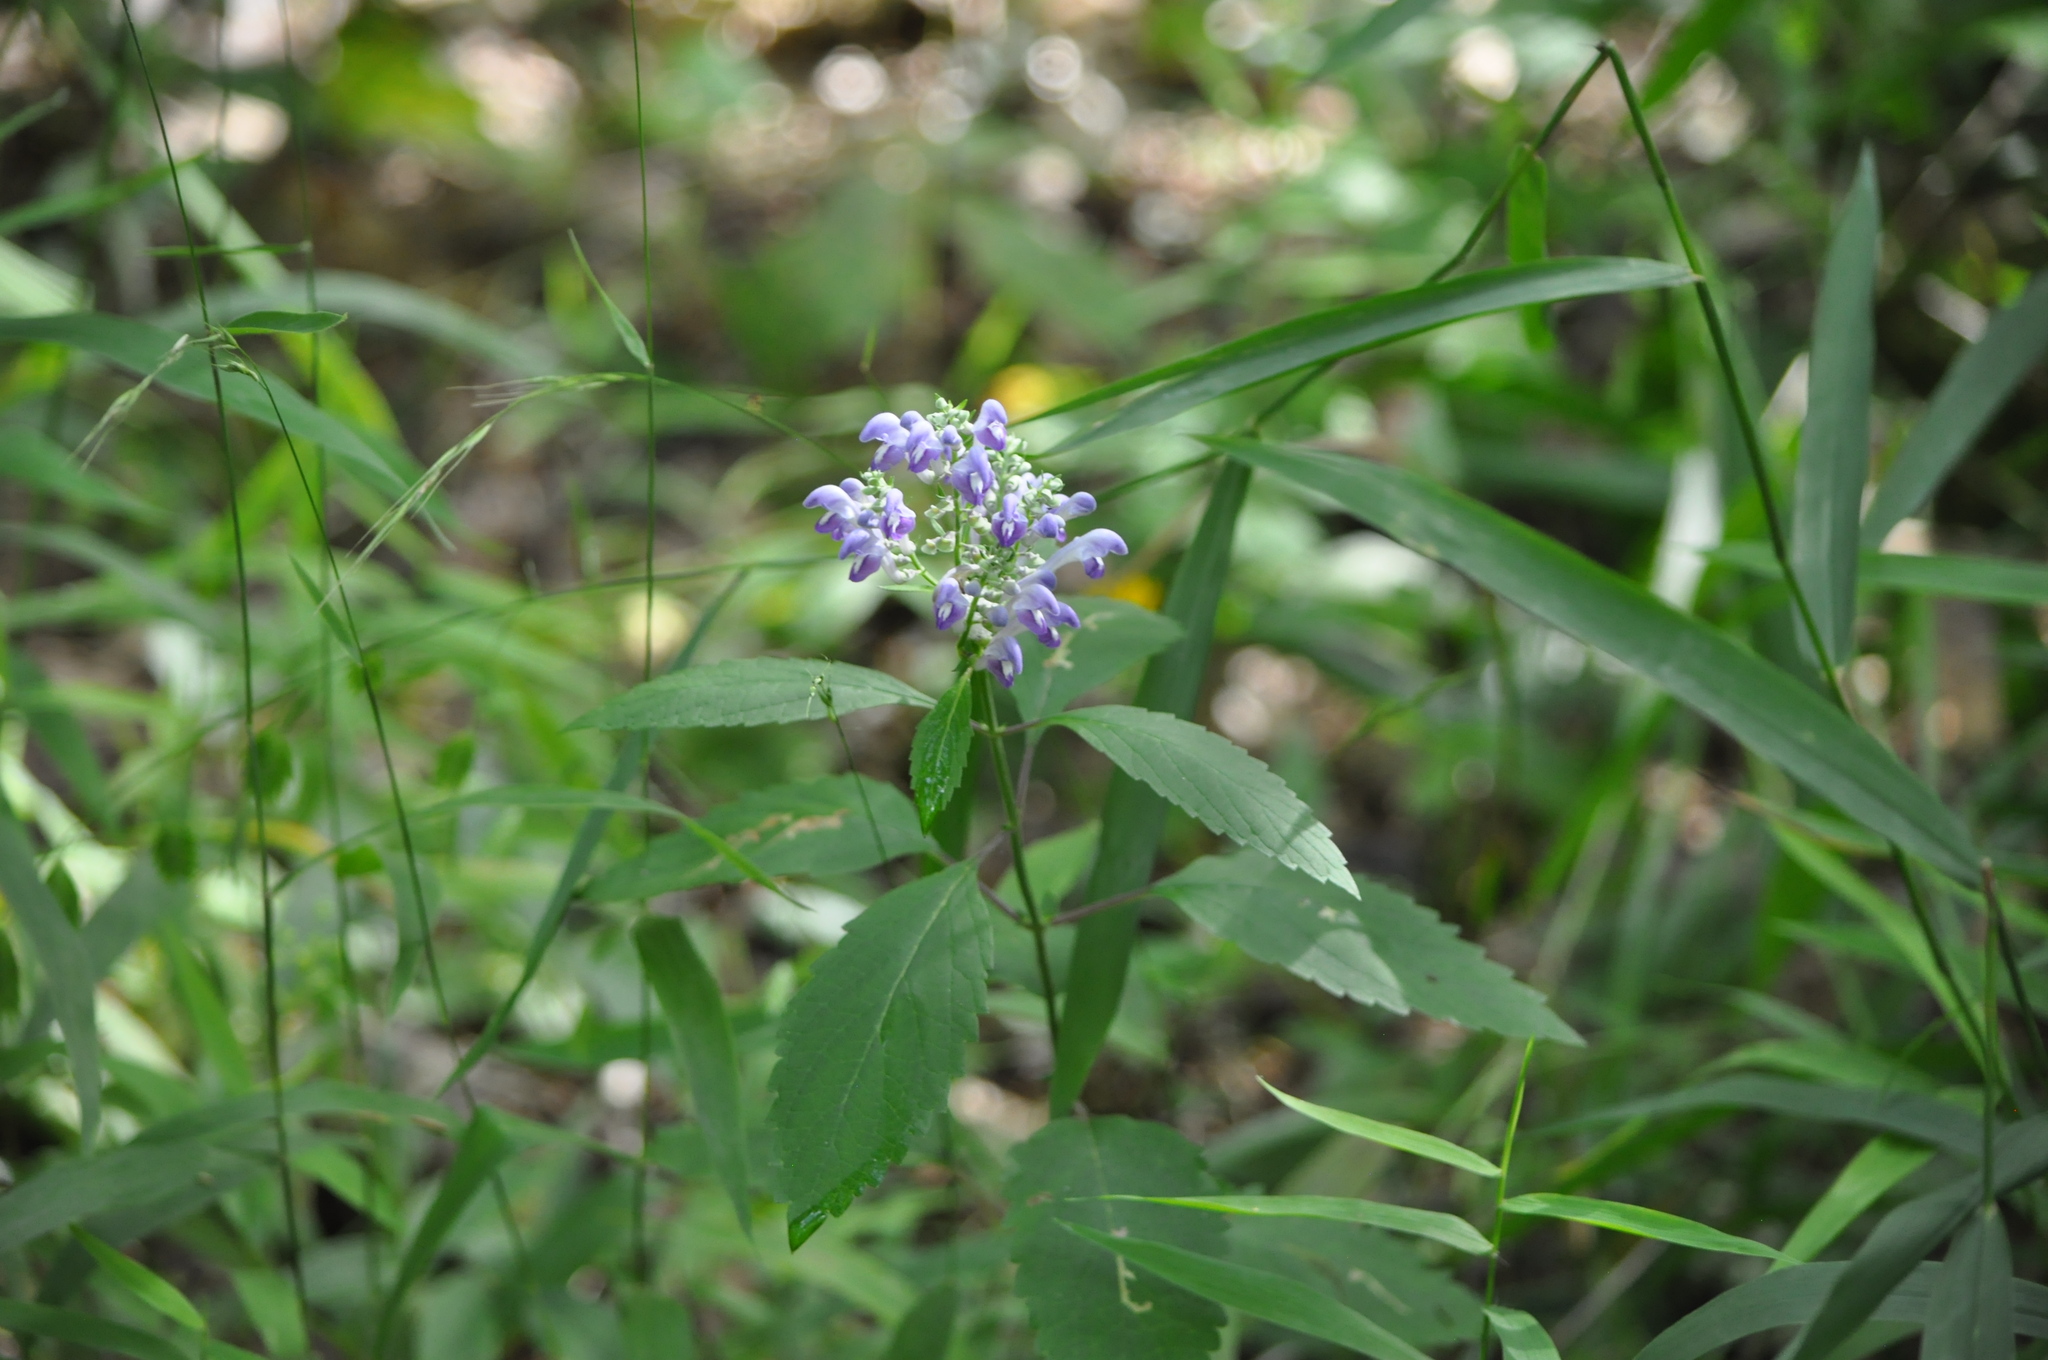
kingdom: Plantae
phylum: Tracheophyta
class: Magnoliopsida
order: Lamiales
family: Lamiaceae
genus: Scutellaria
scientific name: Scutellaria incana
